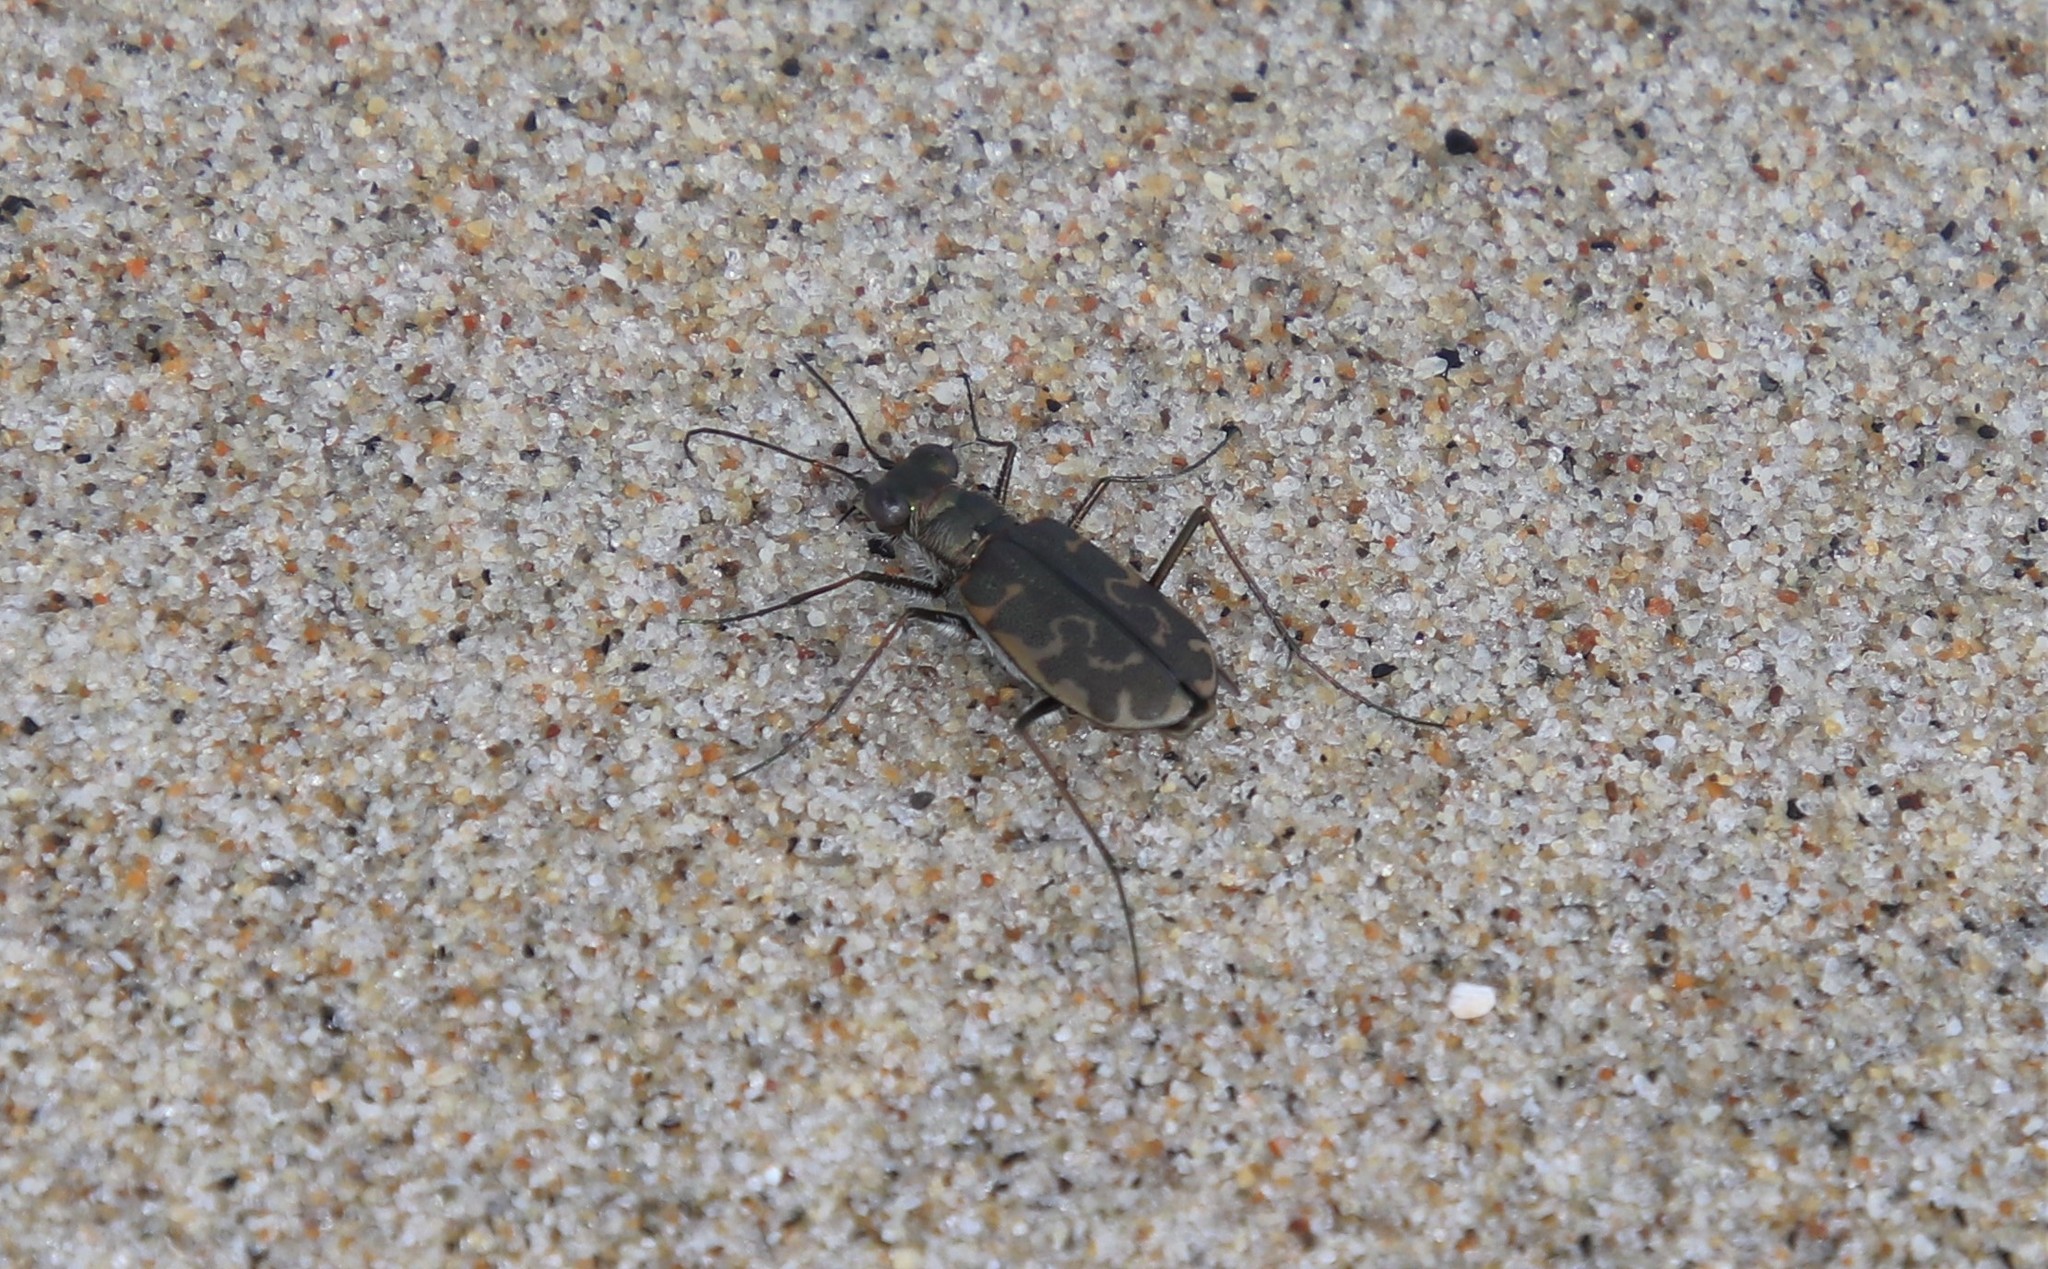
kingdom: Animalia
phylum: Arthropoda
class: Insecta
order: Coleoptera
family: Carabidae
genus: Cicindela
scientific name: Cicindela trifasciata
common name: Mudflat tiger beetle
